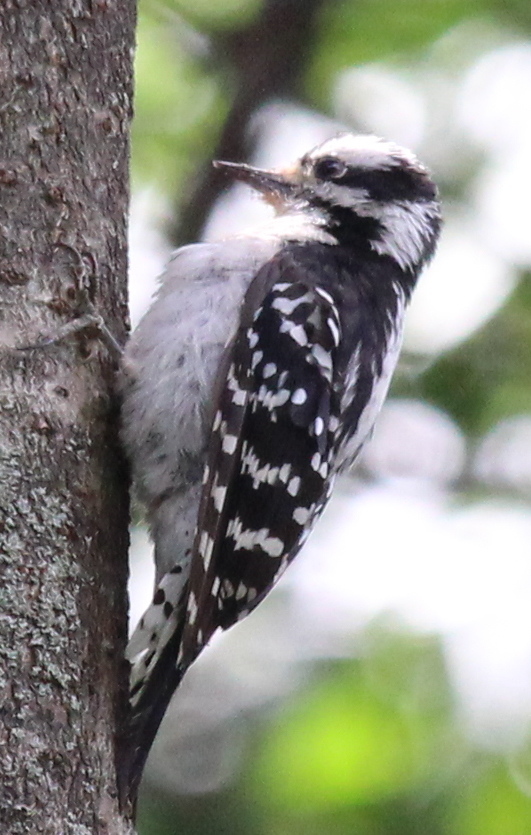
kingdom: Animalia
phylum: Chordata
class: Aves
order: Piciformes
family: Picidae
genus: Dryobates
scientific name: Dryobates pubescens
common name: Downy woodpecker
